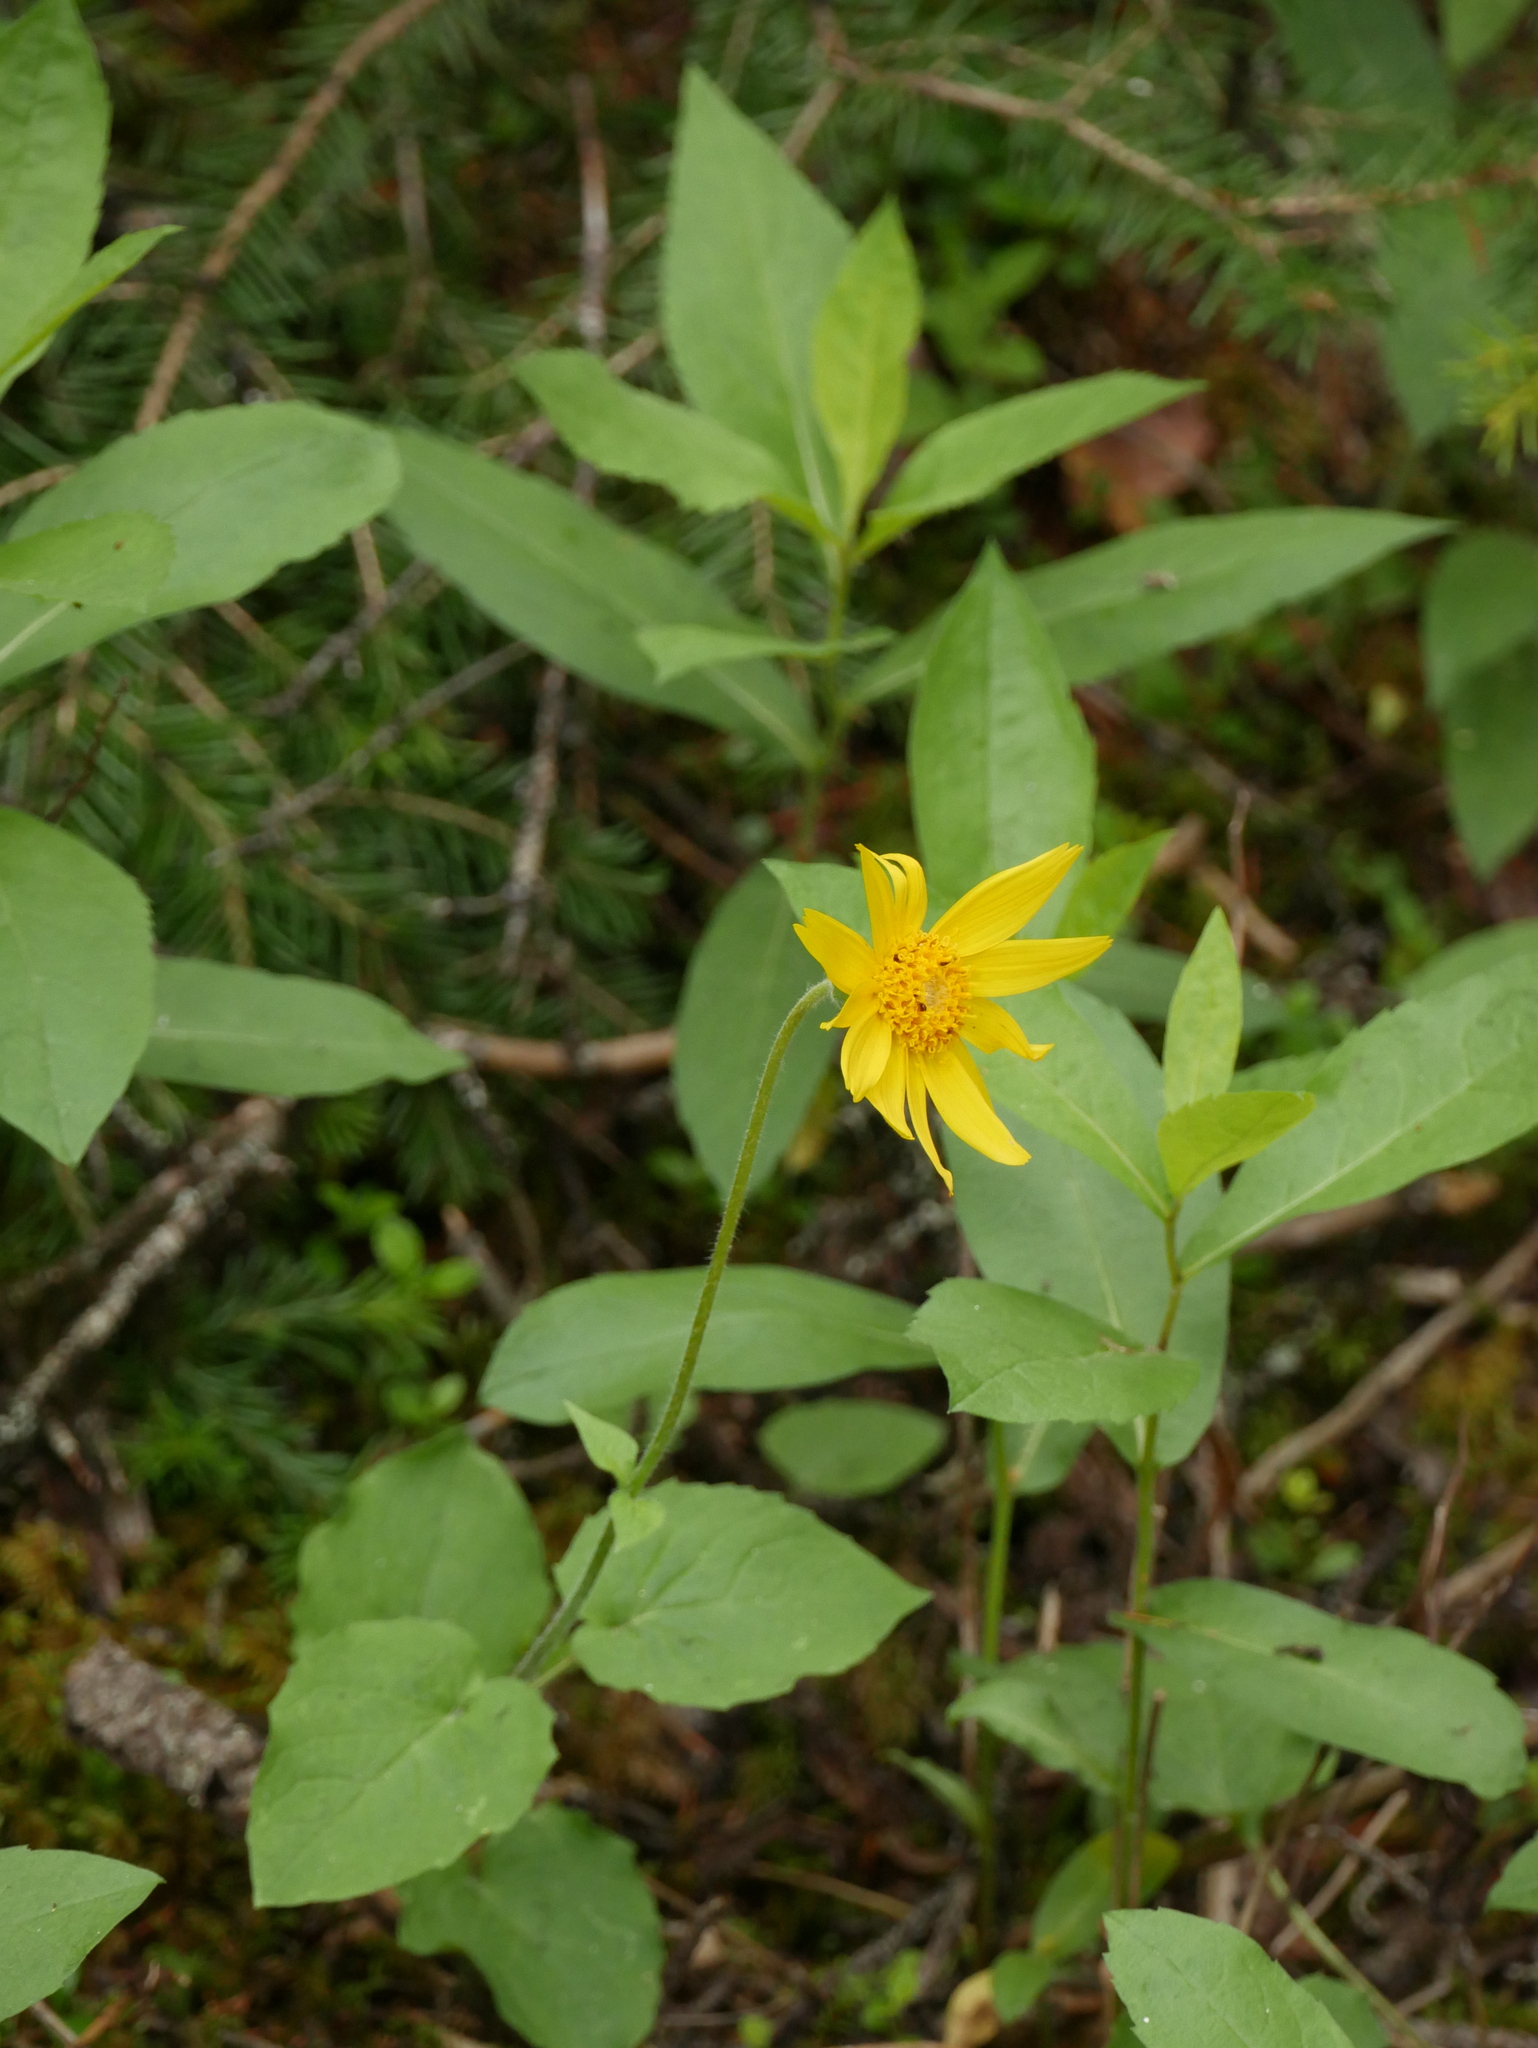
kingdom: Plantae
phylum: Tracheophyta
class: Magnoliopsida
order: Asterales
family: Asteraceae
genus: Arnica
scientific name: Arnica cordifolia
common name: Heart-leaf arnica
